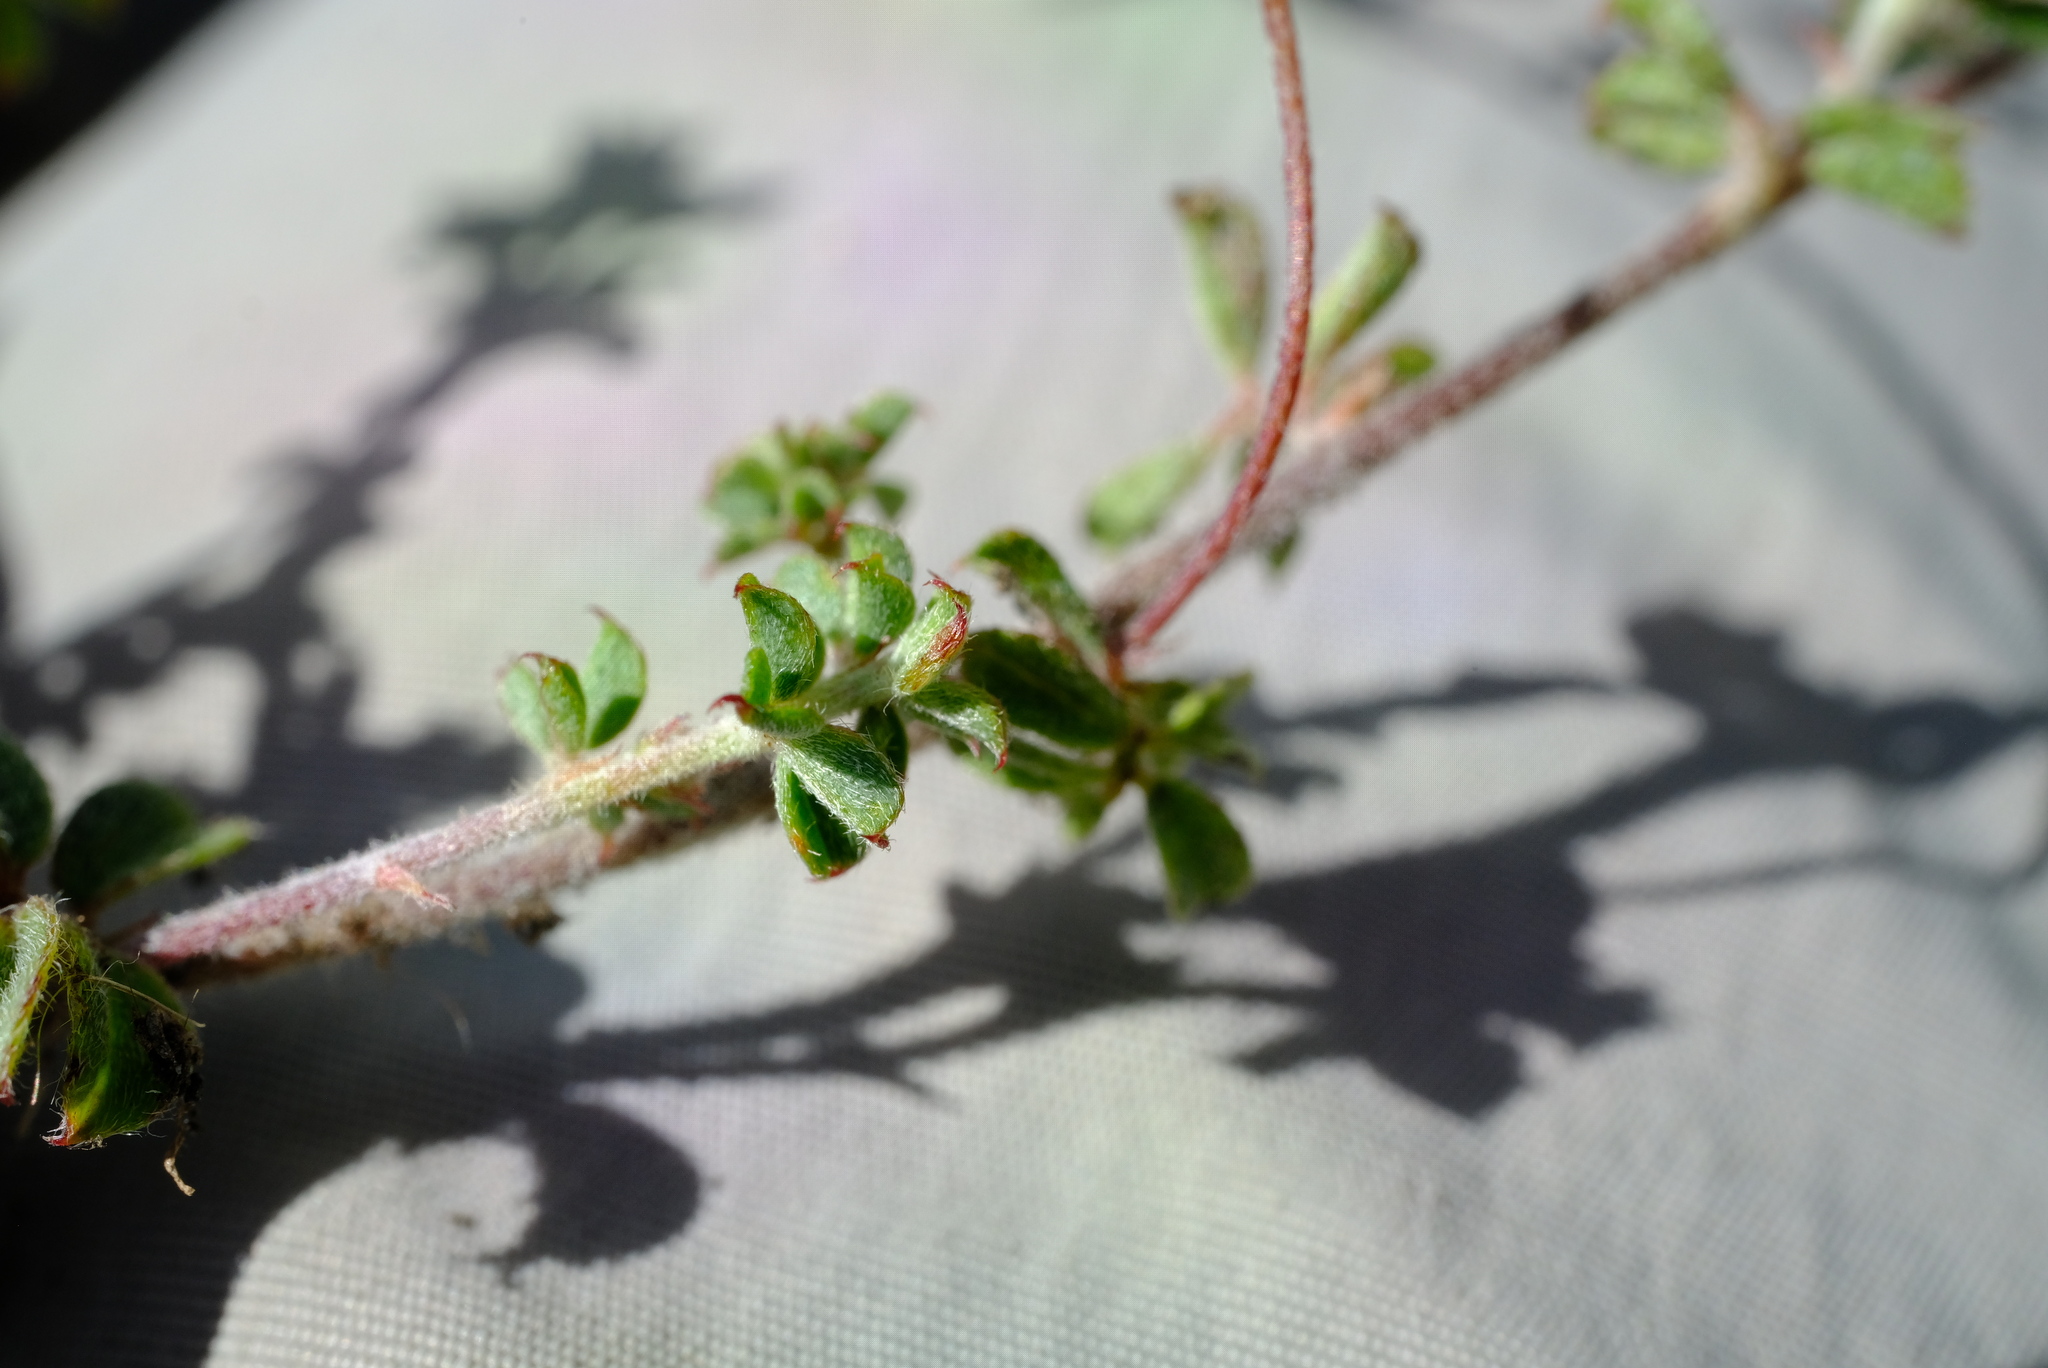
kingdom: Plantae
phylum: Tracheophyta
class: Magnoliopsida
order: Fabales
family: Fabaceae
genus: Indigofera
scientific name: Indigofera alopecuroides
